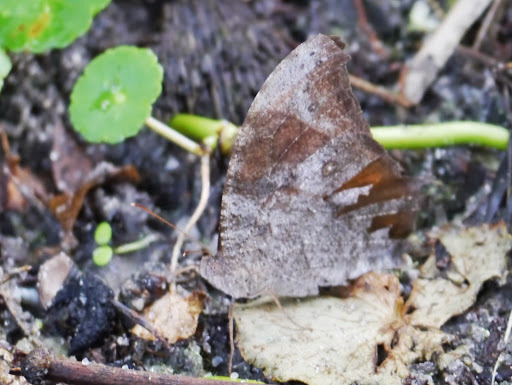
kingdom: Animalia
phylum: Arthropoda
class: Insecta
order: Lepidoptera
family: Nymphalidae
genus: Melanitis
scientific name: Melanitis leda
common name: Twilight brown
